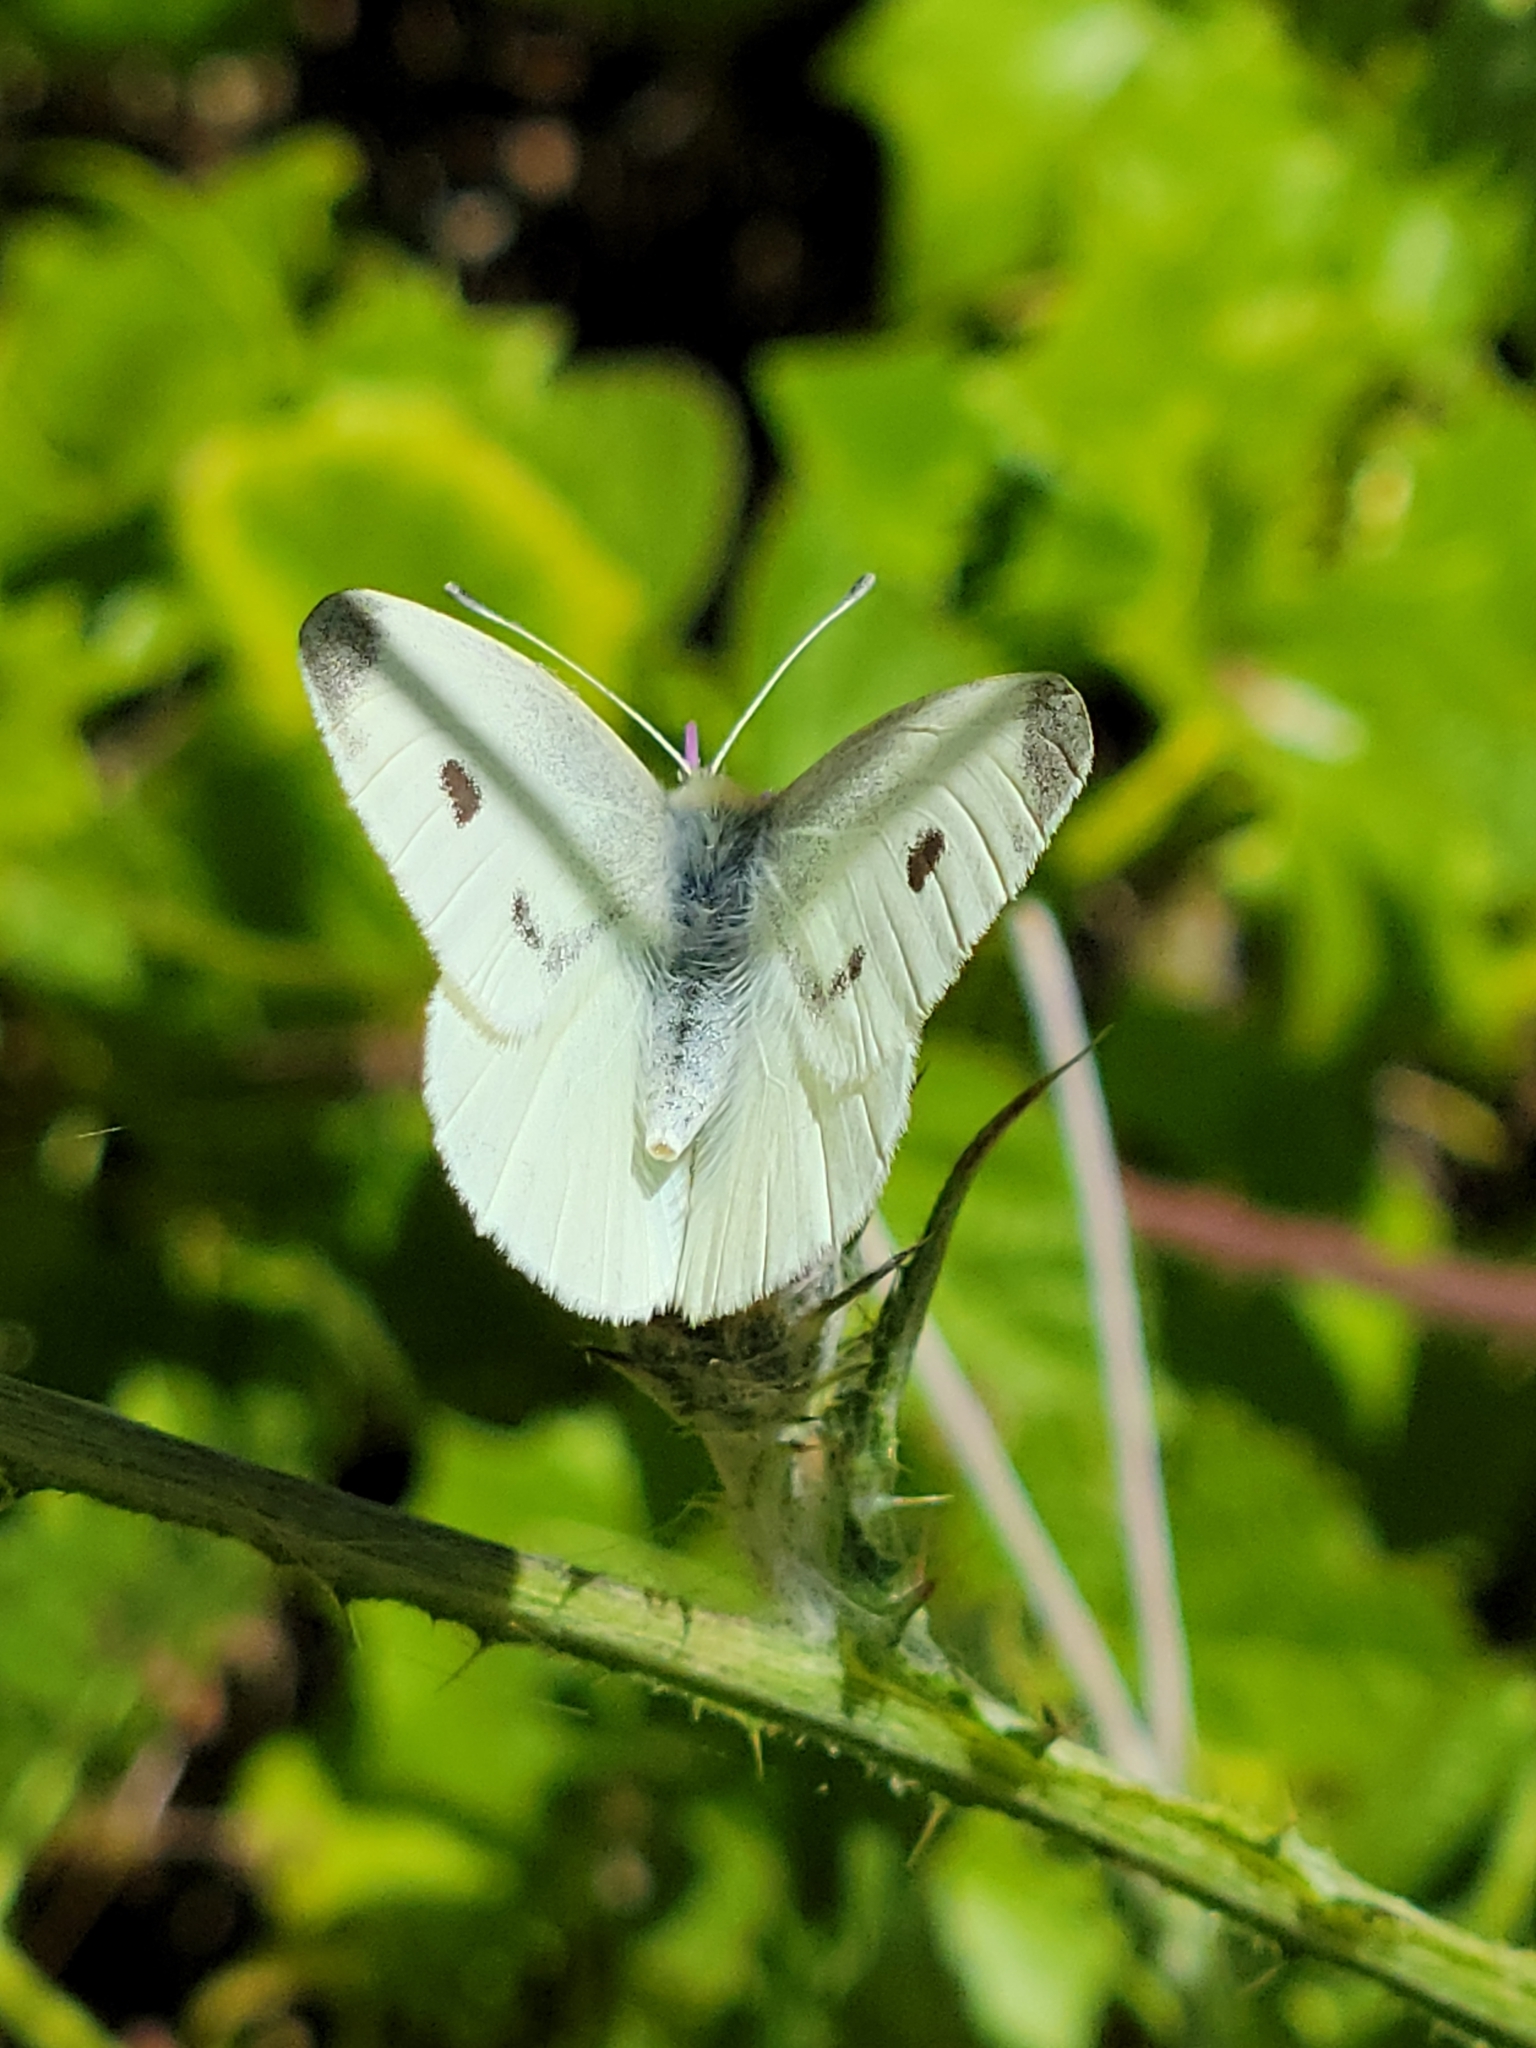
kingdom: Animalia
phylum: Arthropoda
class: Insecta
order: Lepidoptera
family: Pieridae
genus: Pieris
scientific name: Pieris rapae
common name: Small white
